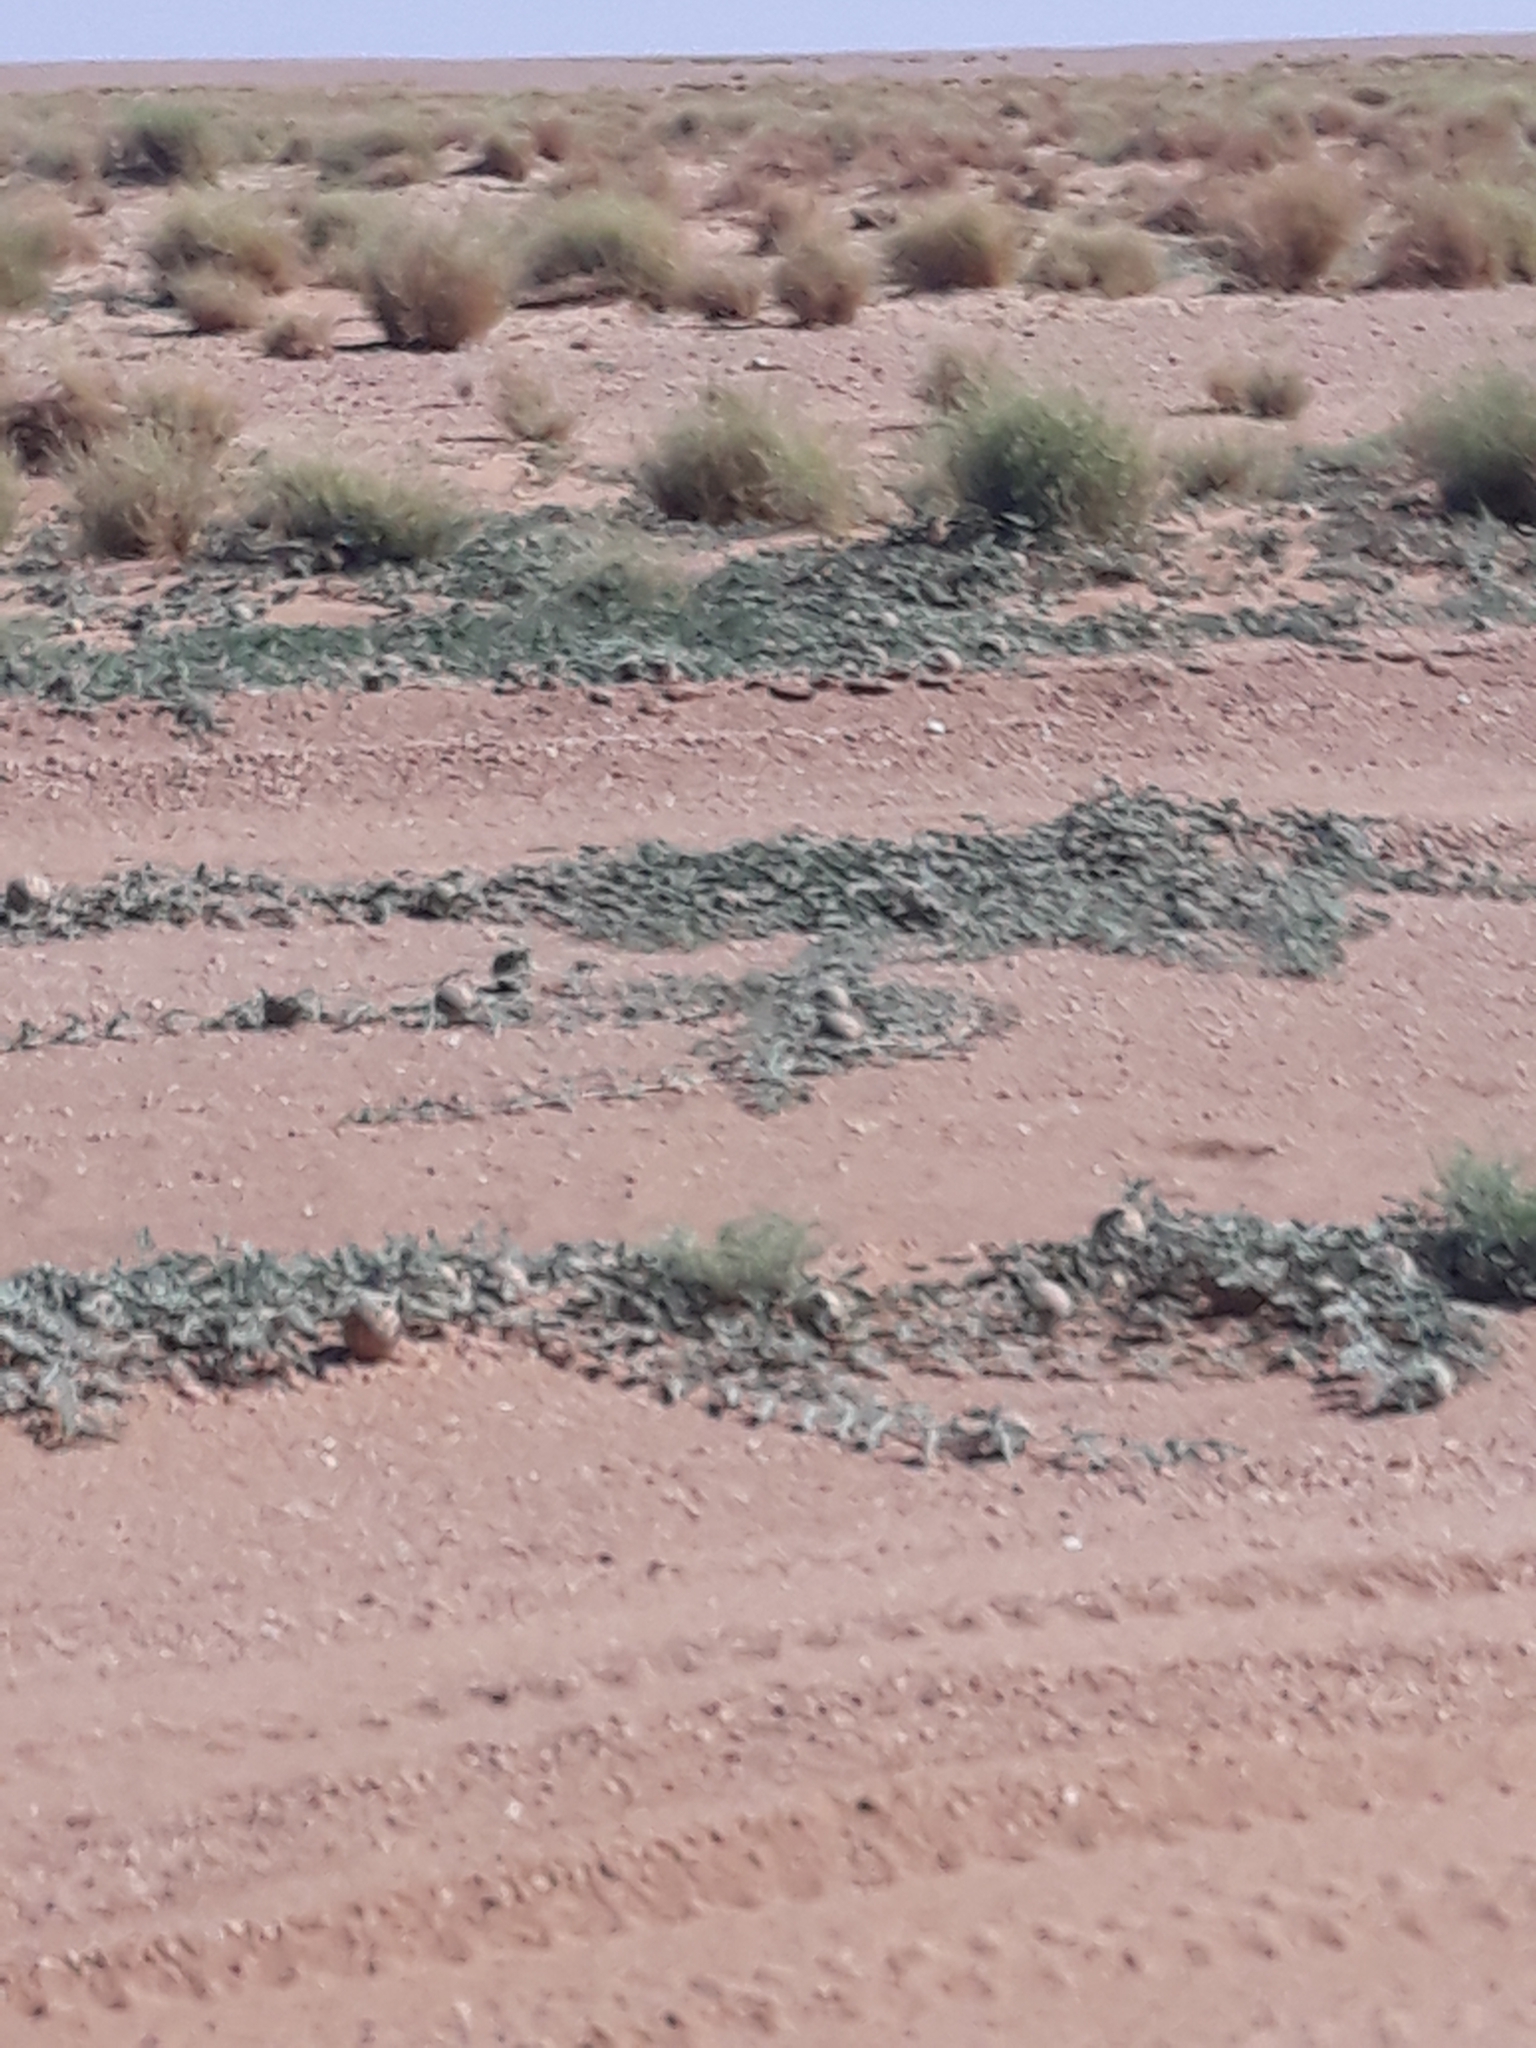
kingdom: Plantae
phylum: Tracheophyta
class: Magnoliopsida
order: Cucurbitales
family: Cucurbitaceae
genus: Citrullus
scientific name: Citrullus colocynthis
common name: Colocynth
